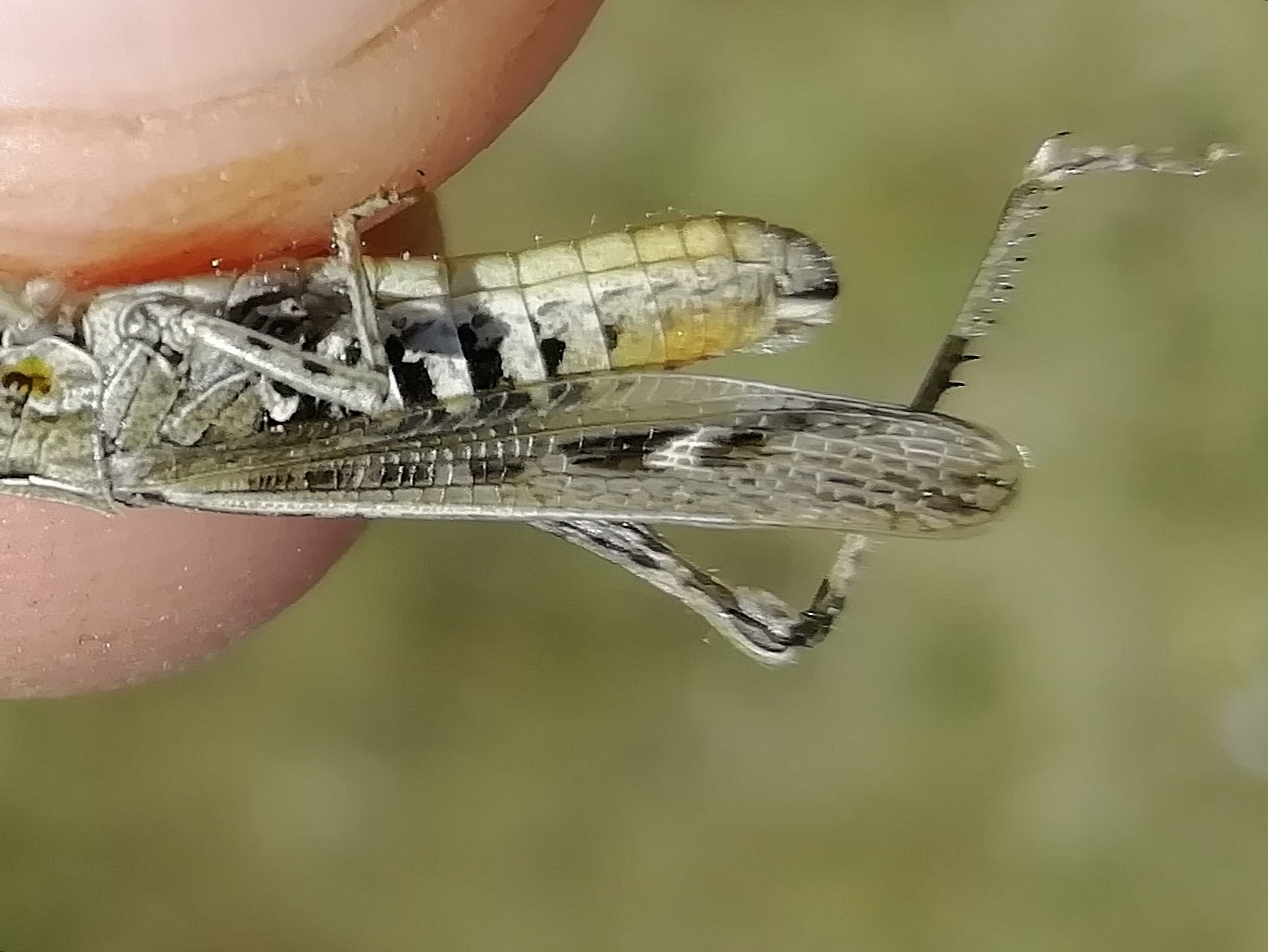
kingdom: Animalia
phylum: Arthropoda
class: Insecta
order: Orthoptera
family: Acrididae
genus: Chorthippus
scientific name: Chorthippus mollis
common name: Lesser field grasshopper
